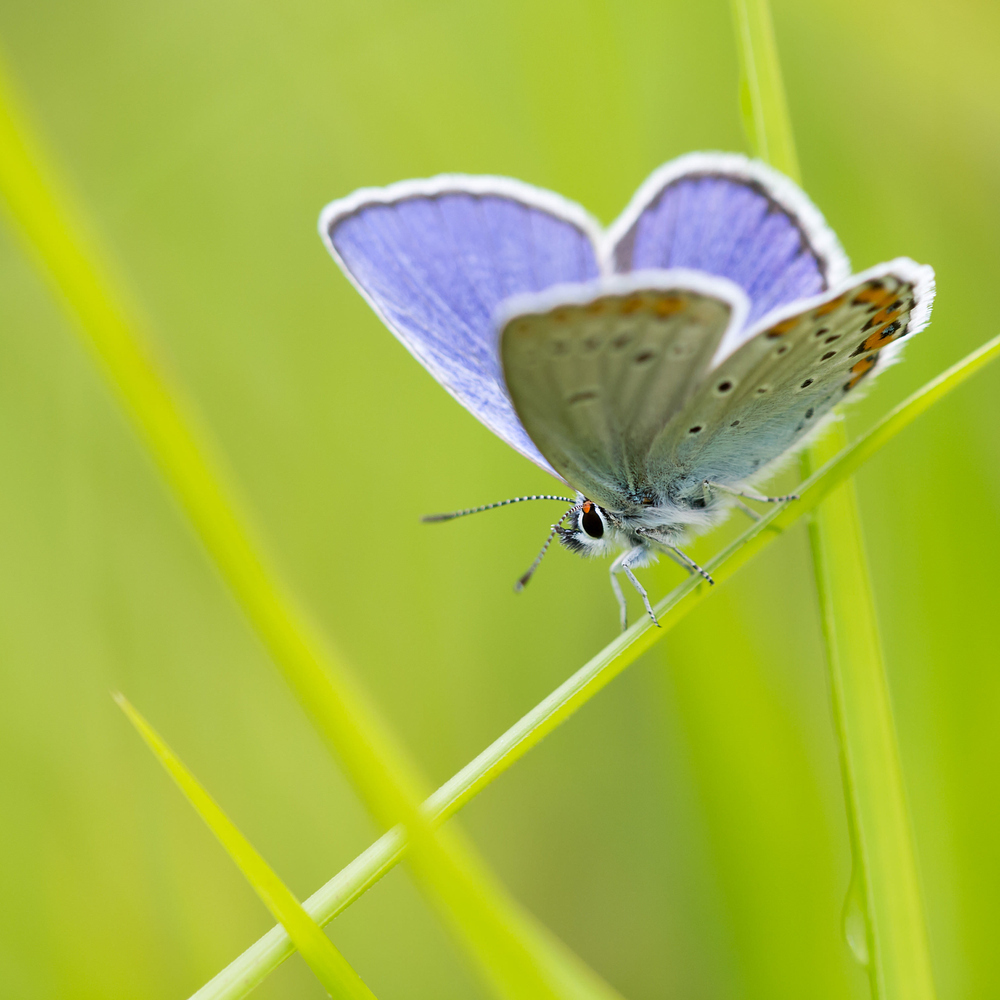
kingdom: Animalia
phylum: Arthropoda
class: Insecta
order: Lepidoptera
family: Lycaenidae
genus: Plebejus
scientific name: Plebejus argyrognomon
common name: Reverdin's blue
